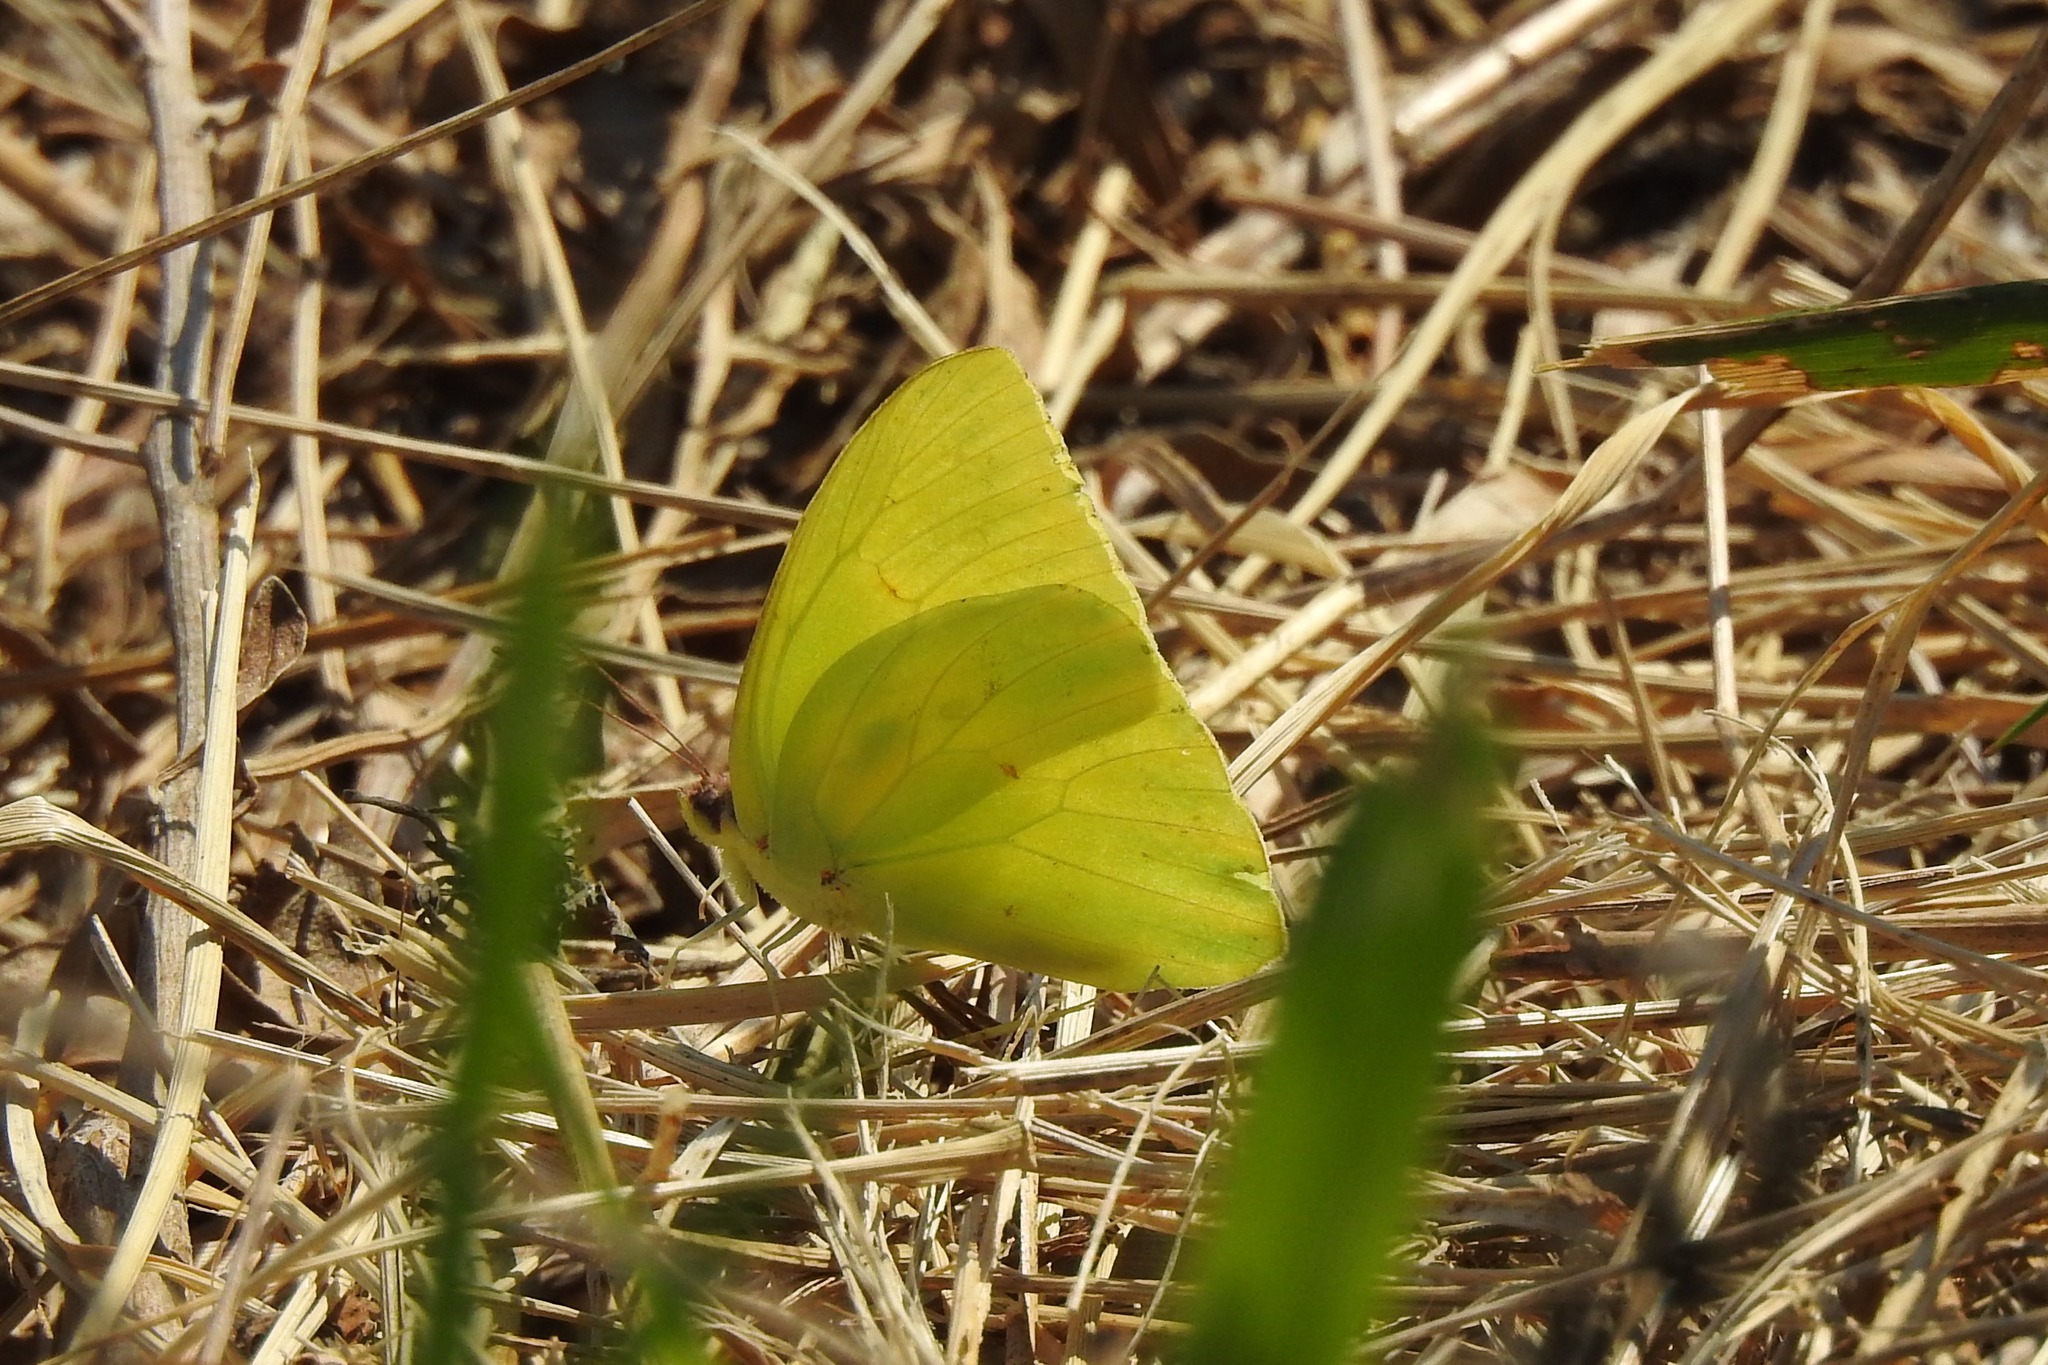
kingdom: Animalia
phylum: Arthropoda
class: Insecta
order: Lepidoptera
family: Pieridae
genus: Phoebis
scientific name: Phoebis sennae
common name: Cloudless sulphur
